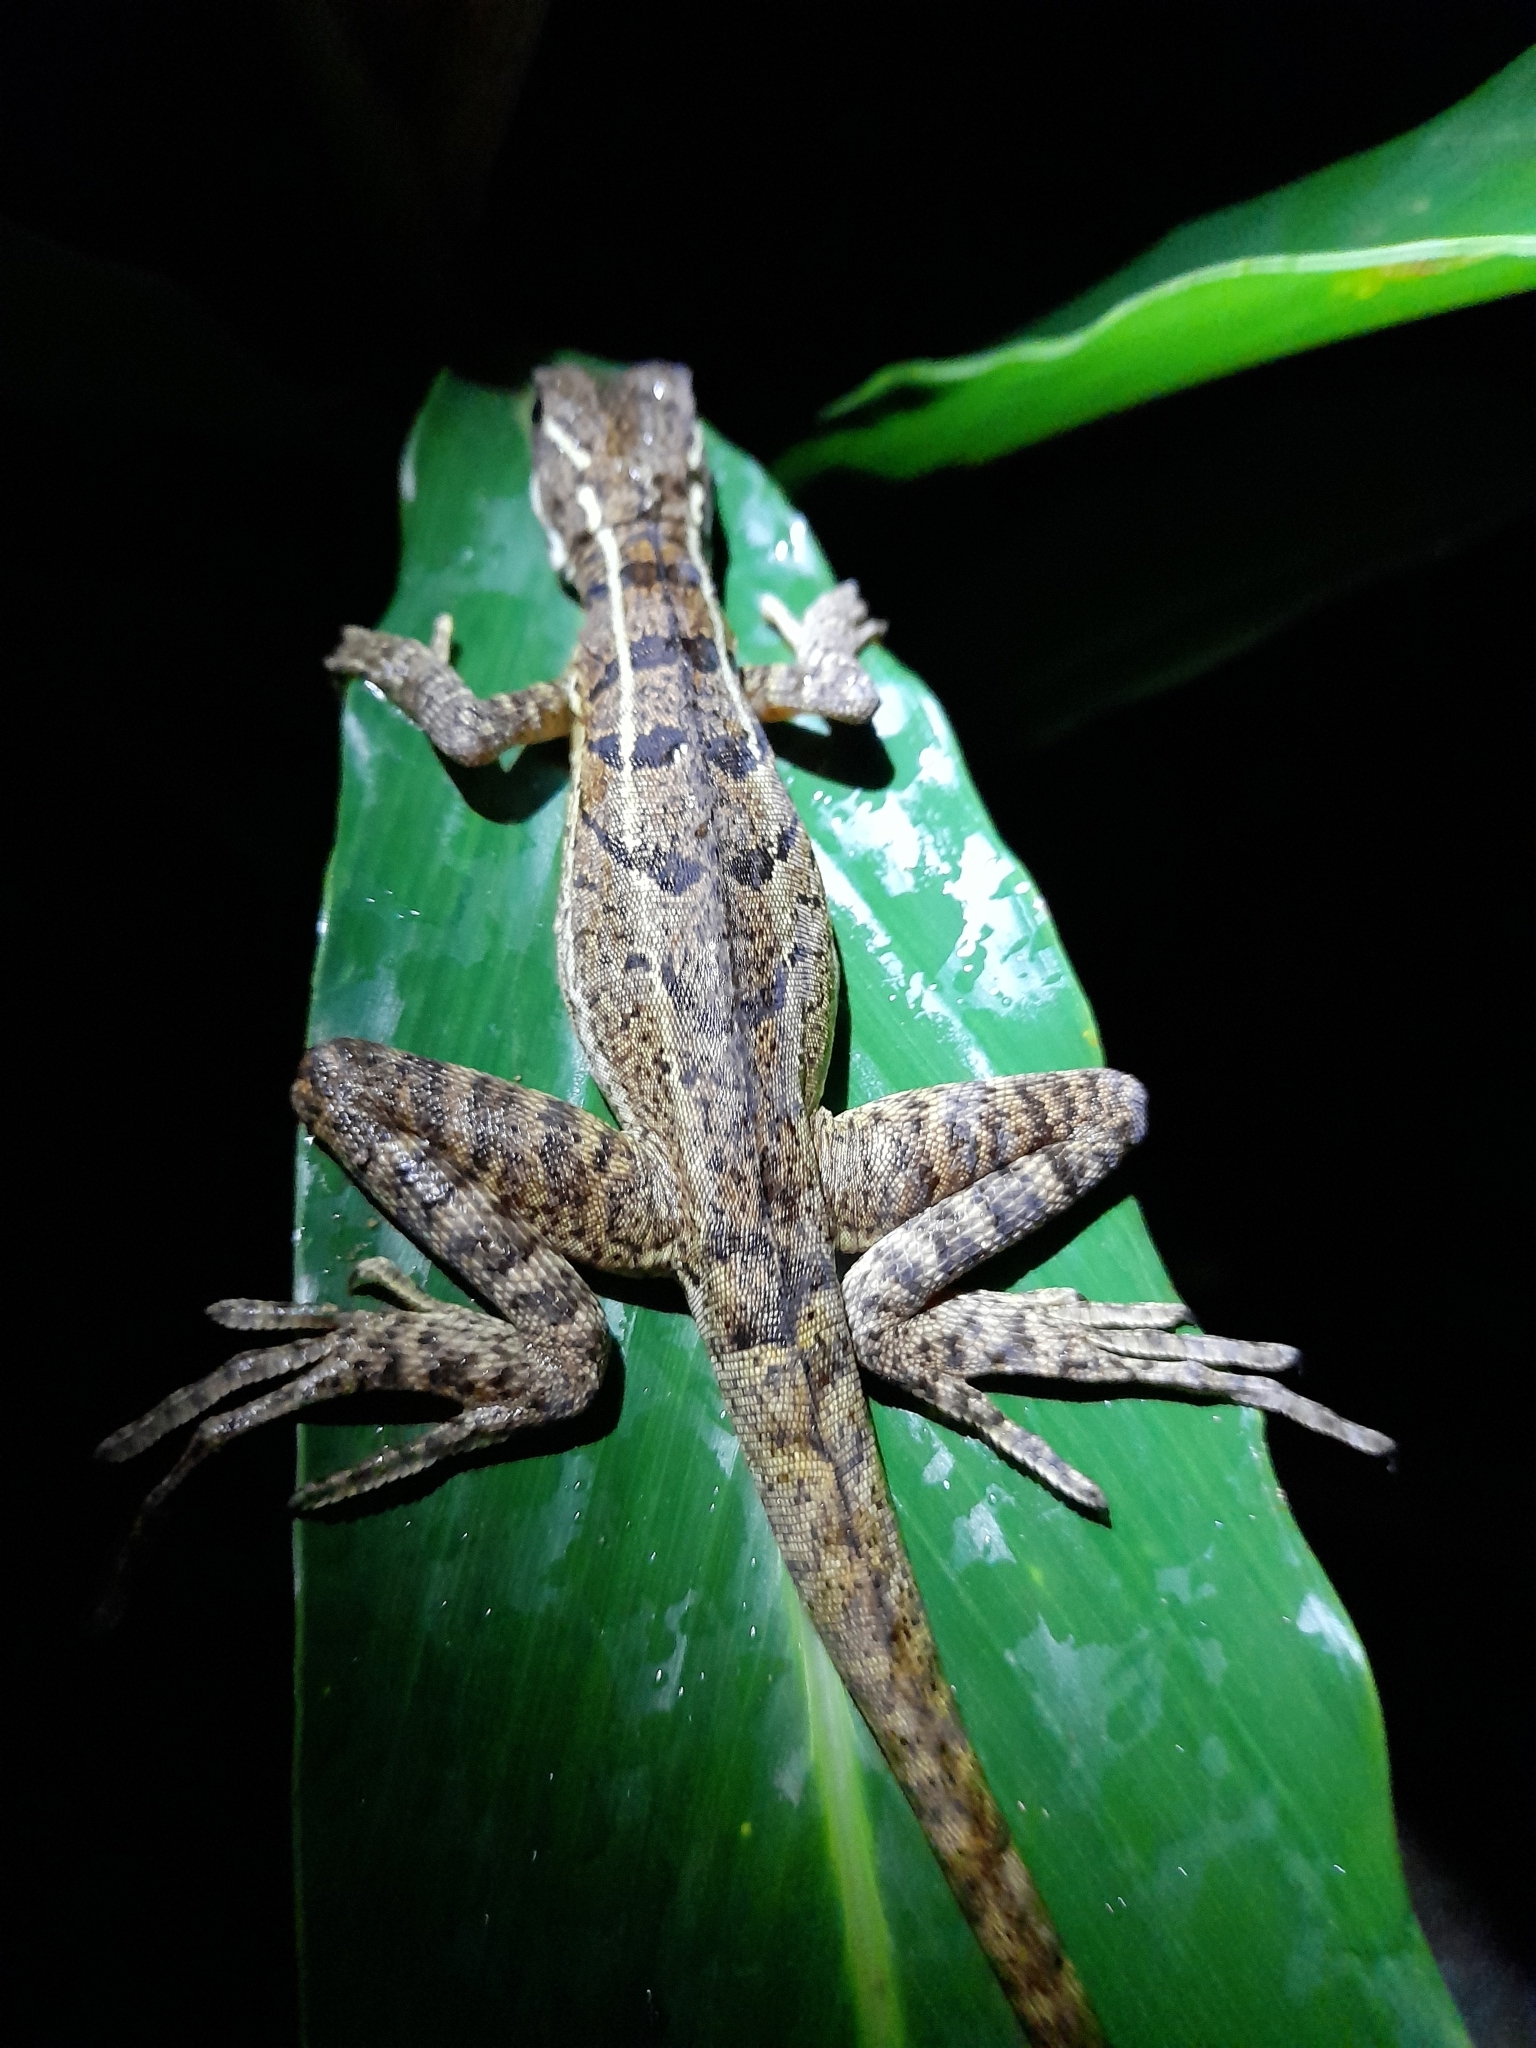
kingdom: Animalia
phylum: Chordata
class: Squamata
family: Corytophanidae
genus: Basiliscus
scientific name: Basiliscus basiliscus
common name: Common basilisk
